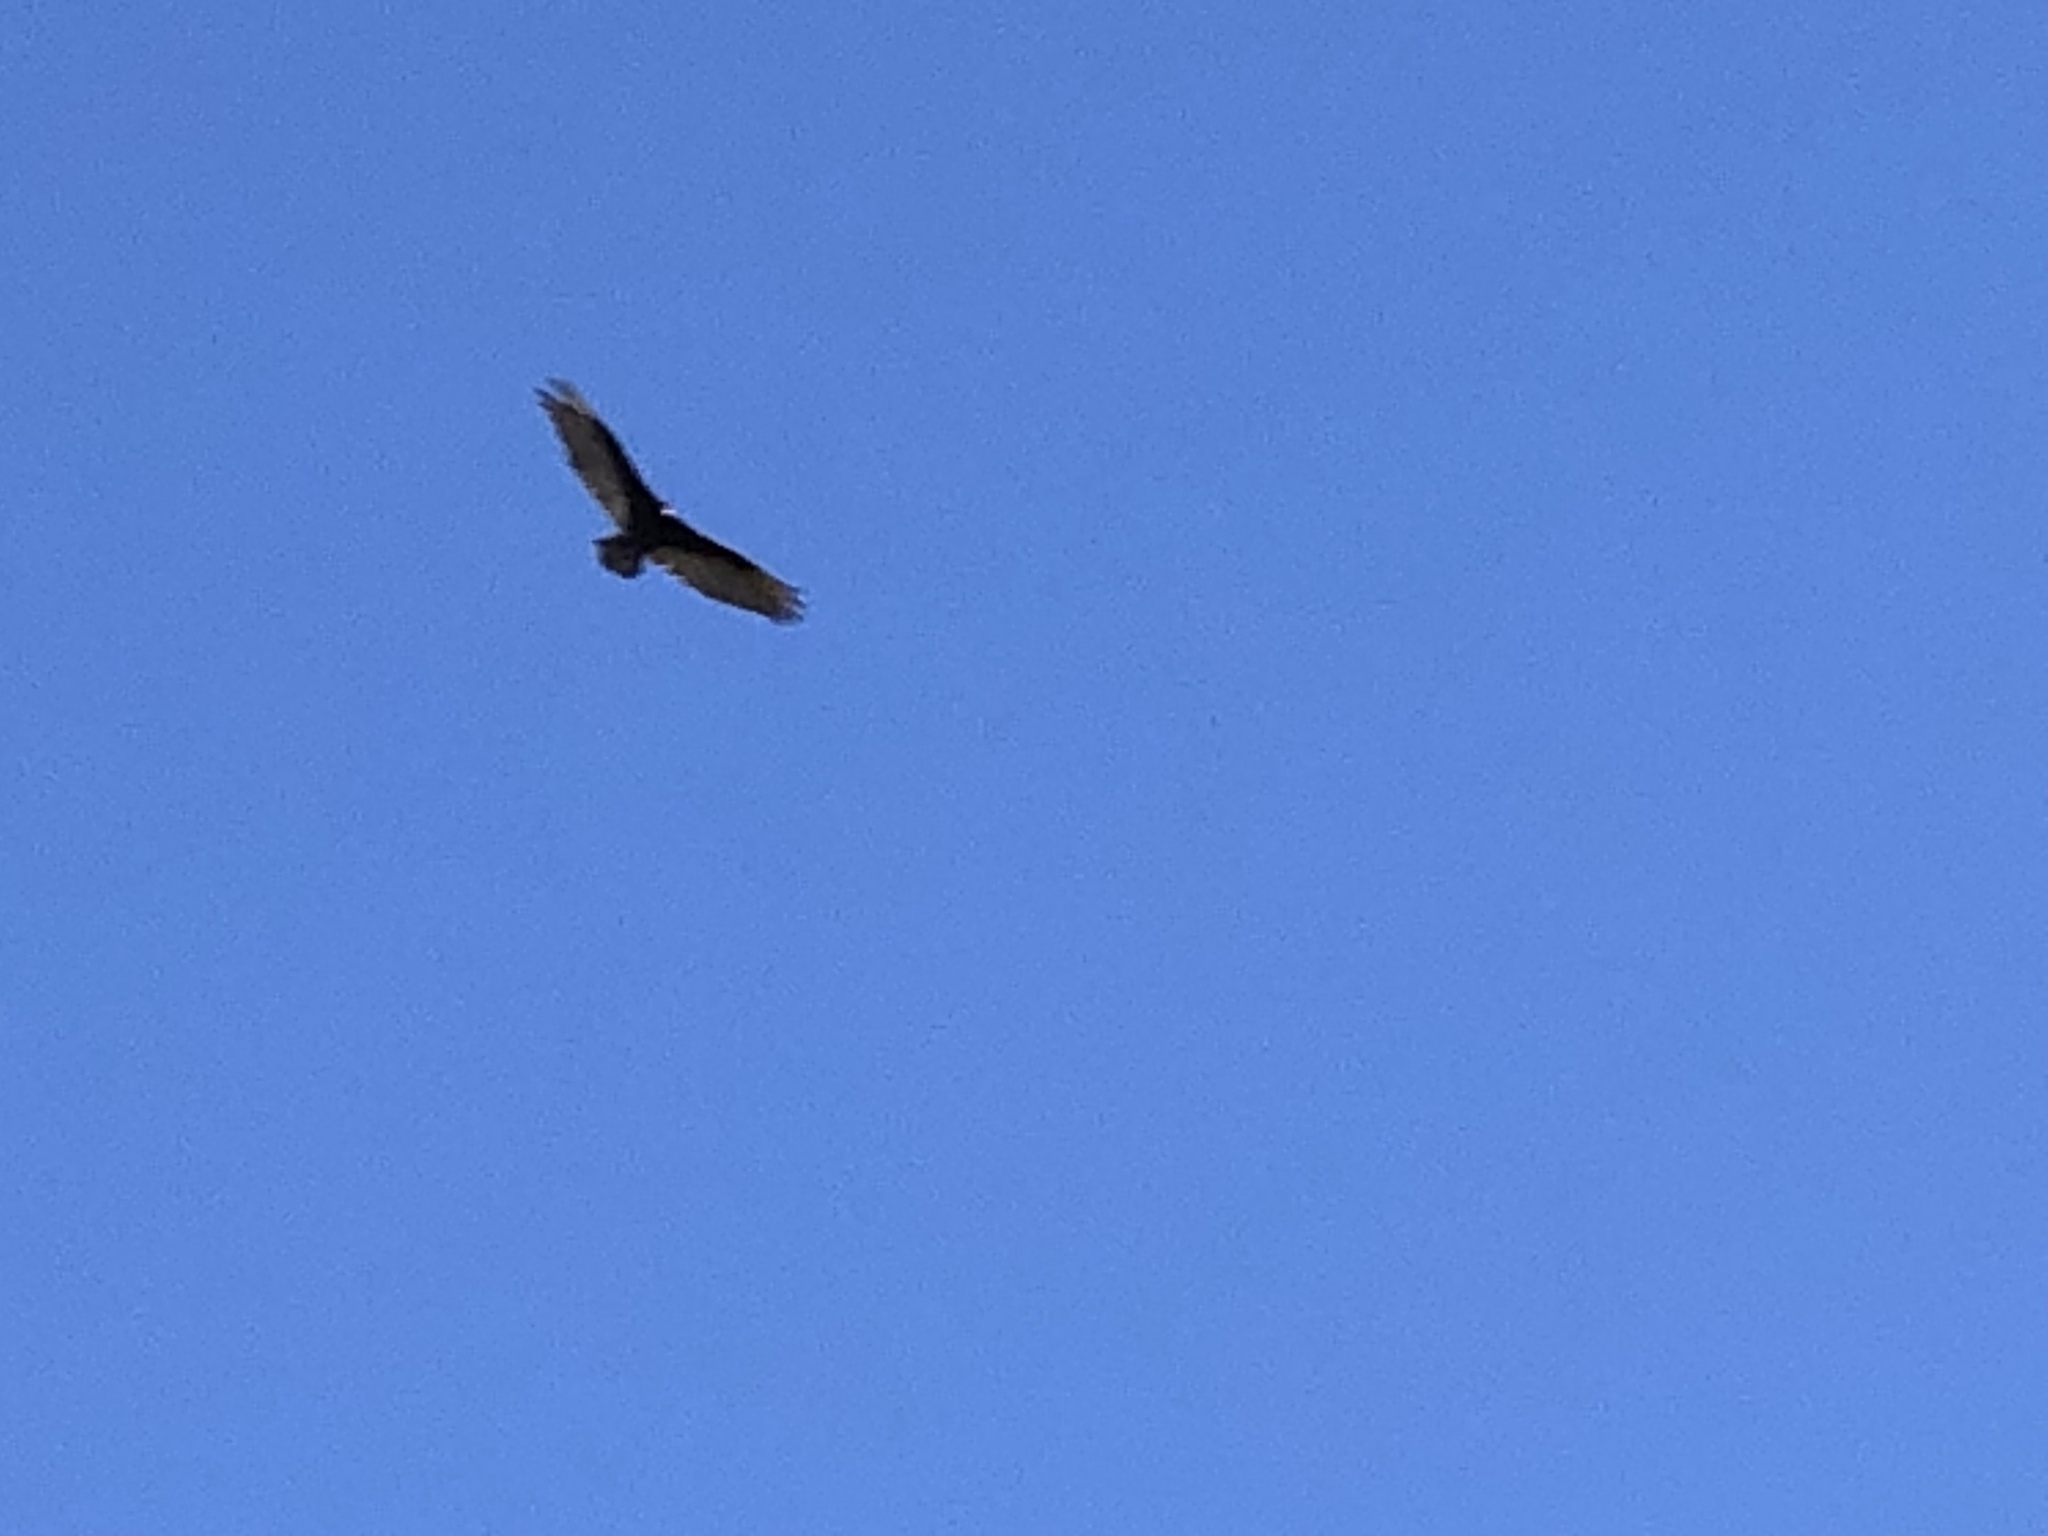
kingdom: Animalia
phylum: Chordata
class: Aves
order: Accipitriformes
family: Cathartidae
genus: Cathartes
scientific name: Cathartes aura
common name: Turkey vulture
